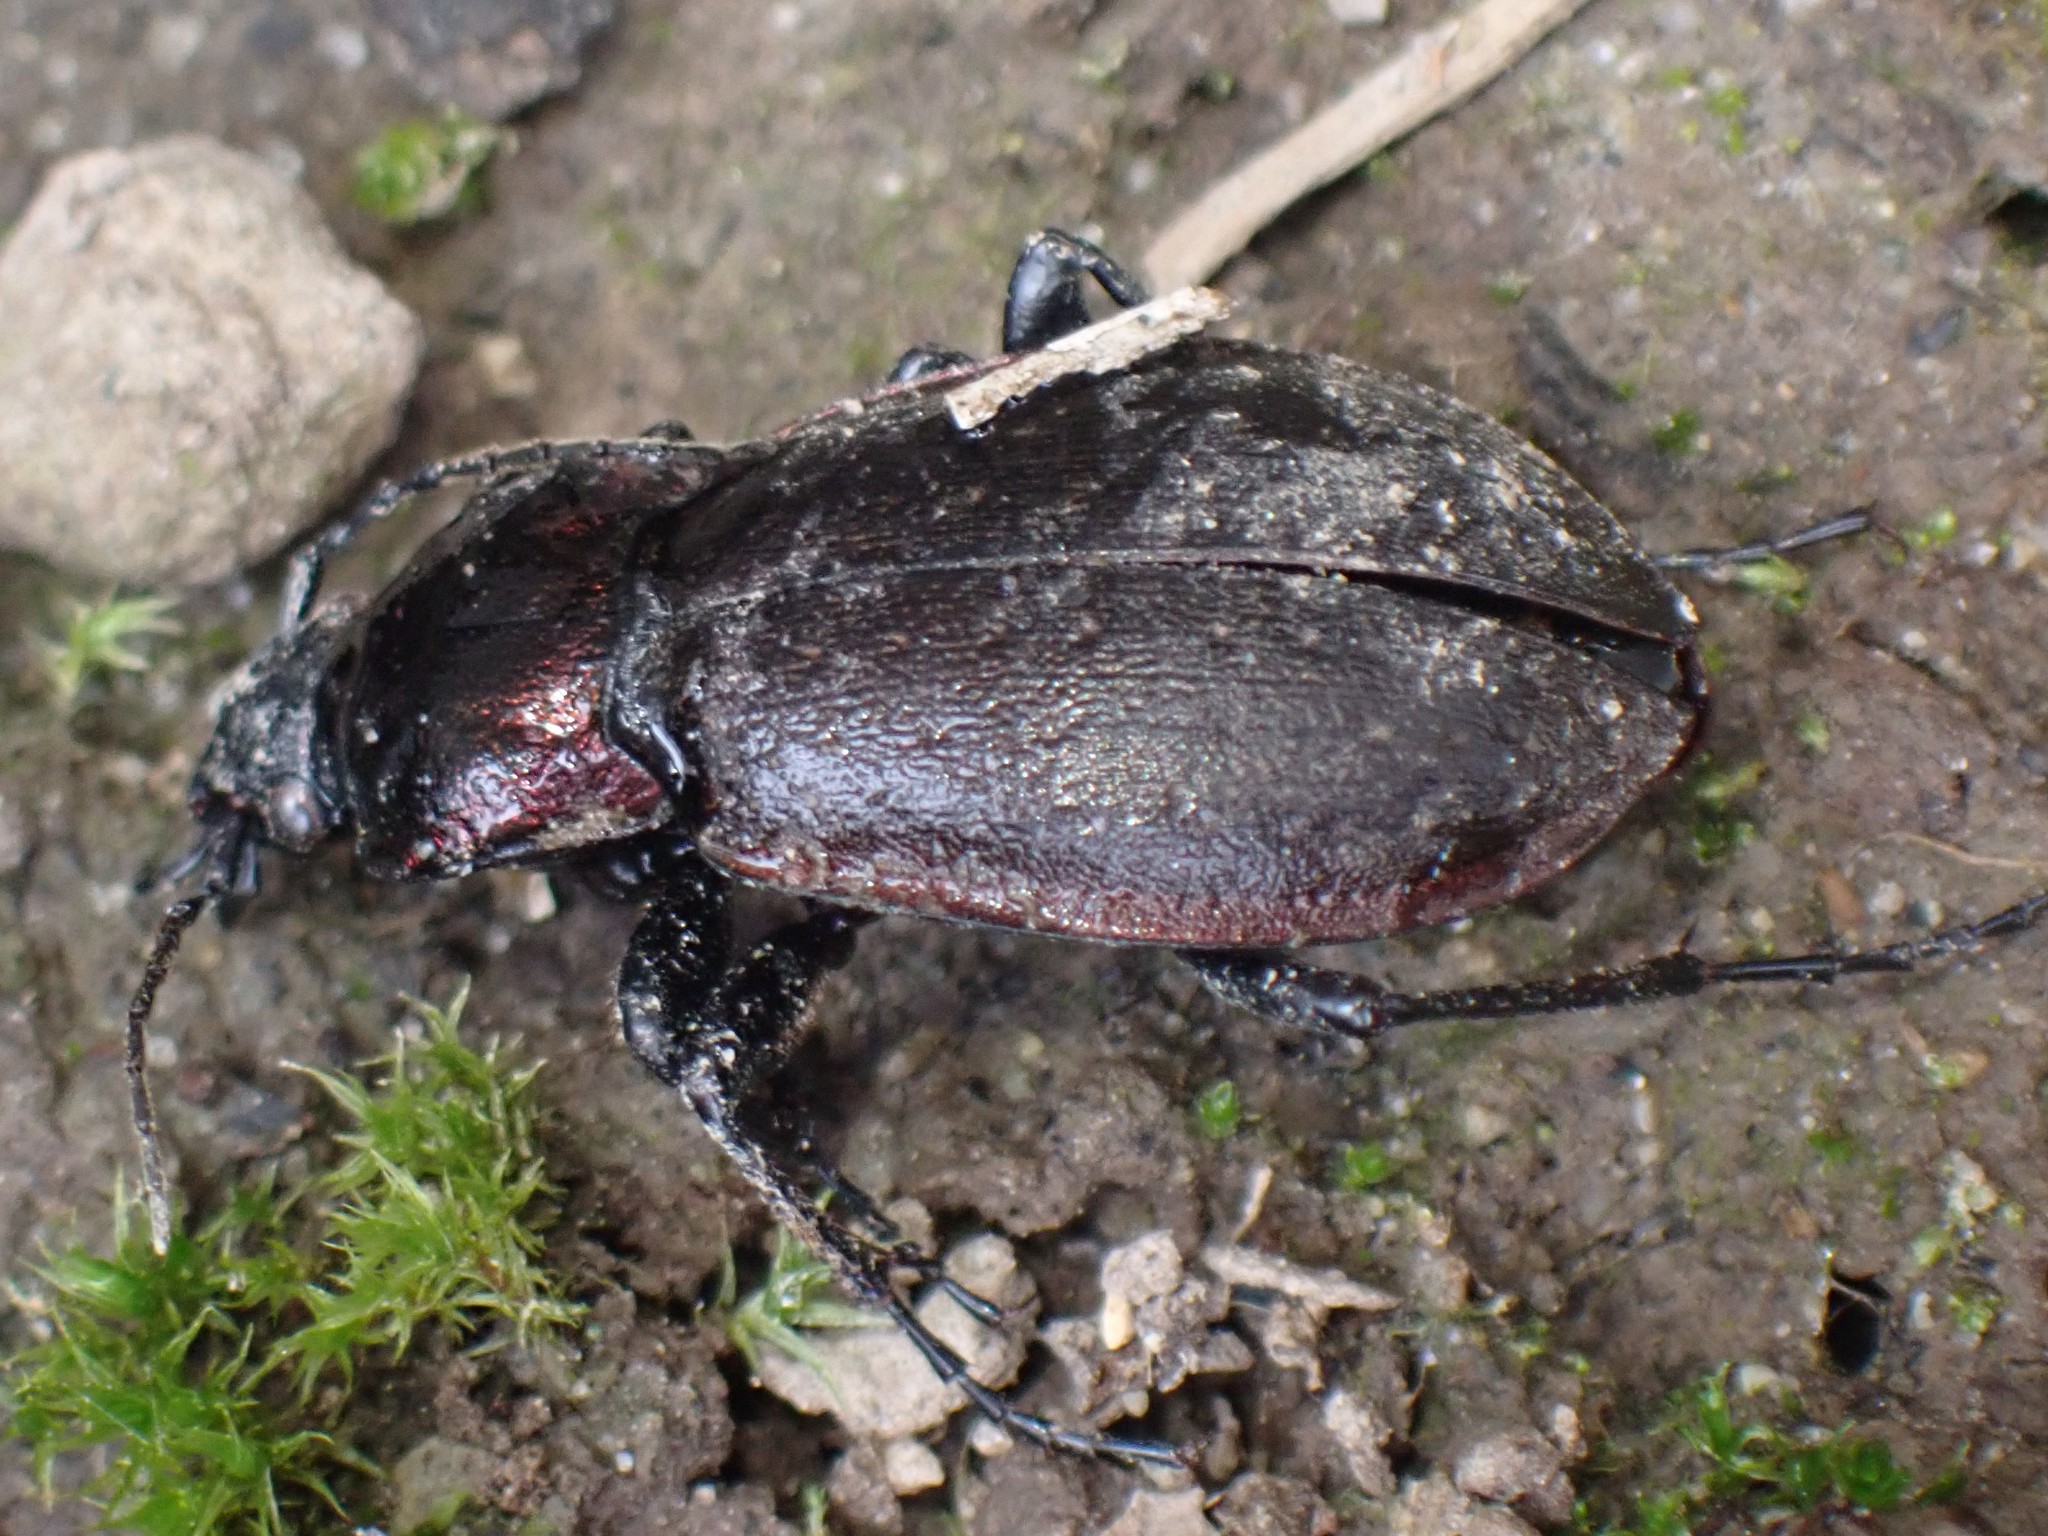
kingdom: Animalia
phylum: Arthropoda
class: Insecta
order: Coleoptera
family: Carabidae
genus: Carabus
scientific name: Carabus nemoralis
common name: European ground beetle
